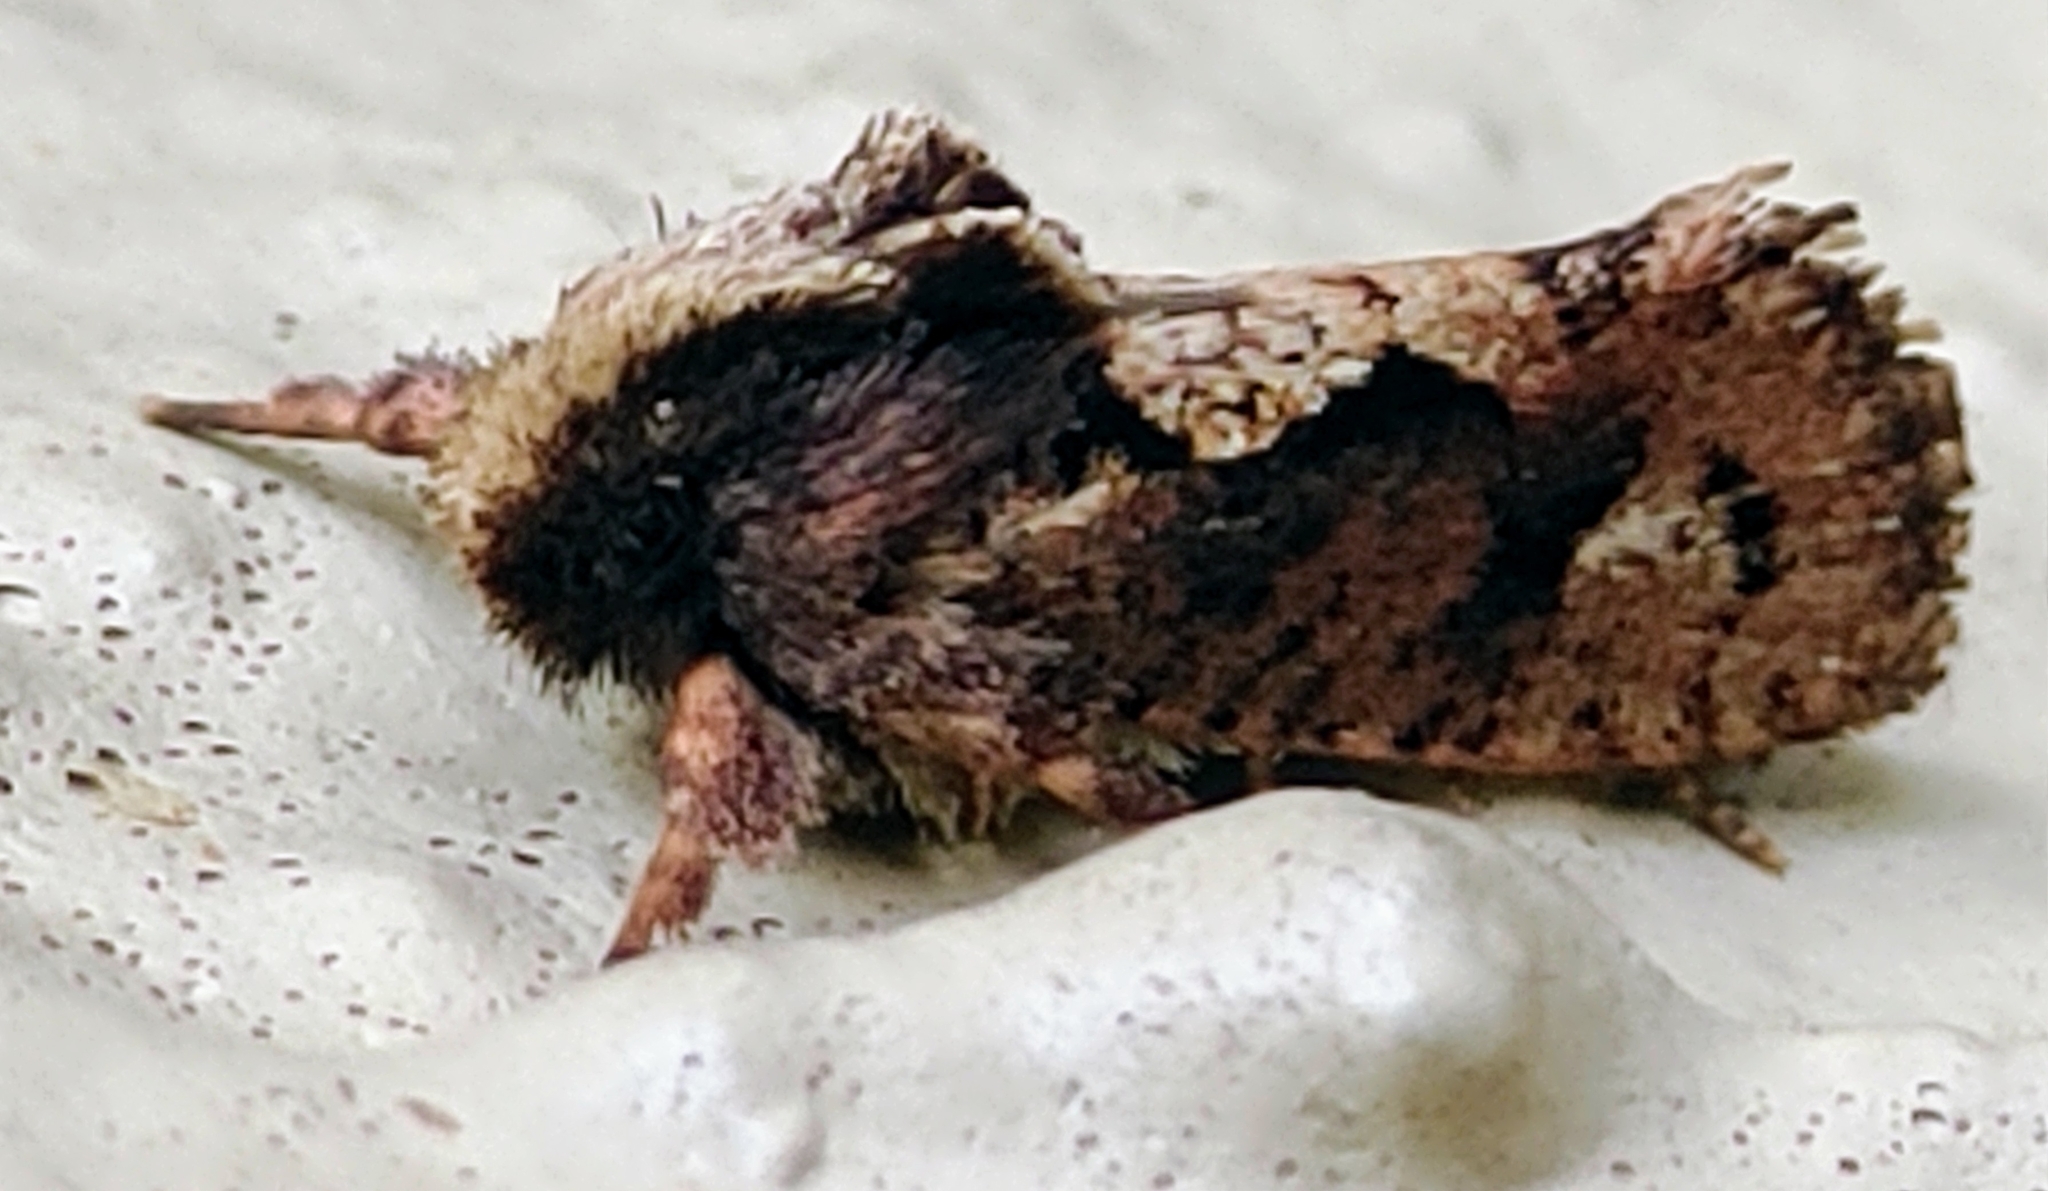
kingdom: Animalia
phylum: Arthropoda
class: Insecta
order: Lepidoptera
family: Tineidae
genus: Acrolophus
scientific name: Acrolophus walsinghami
